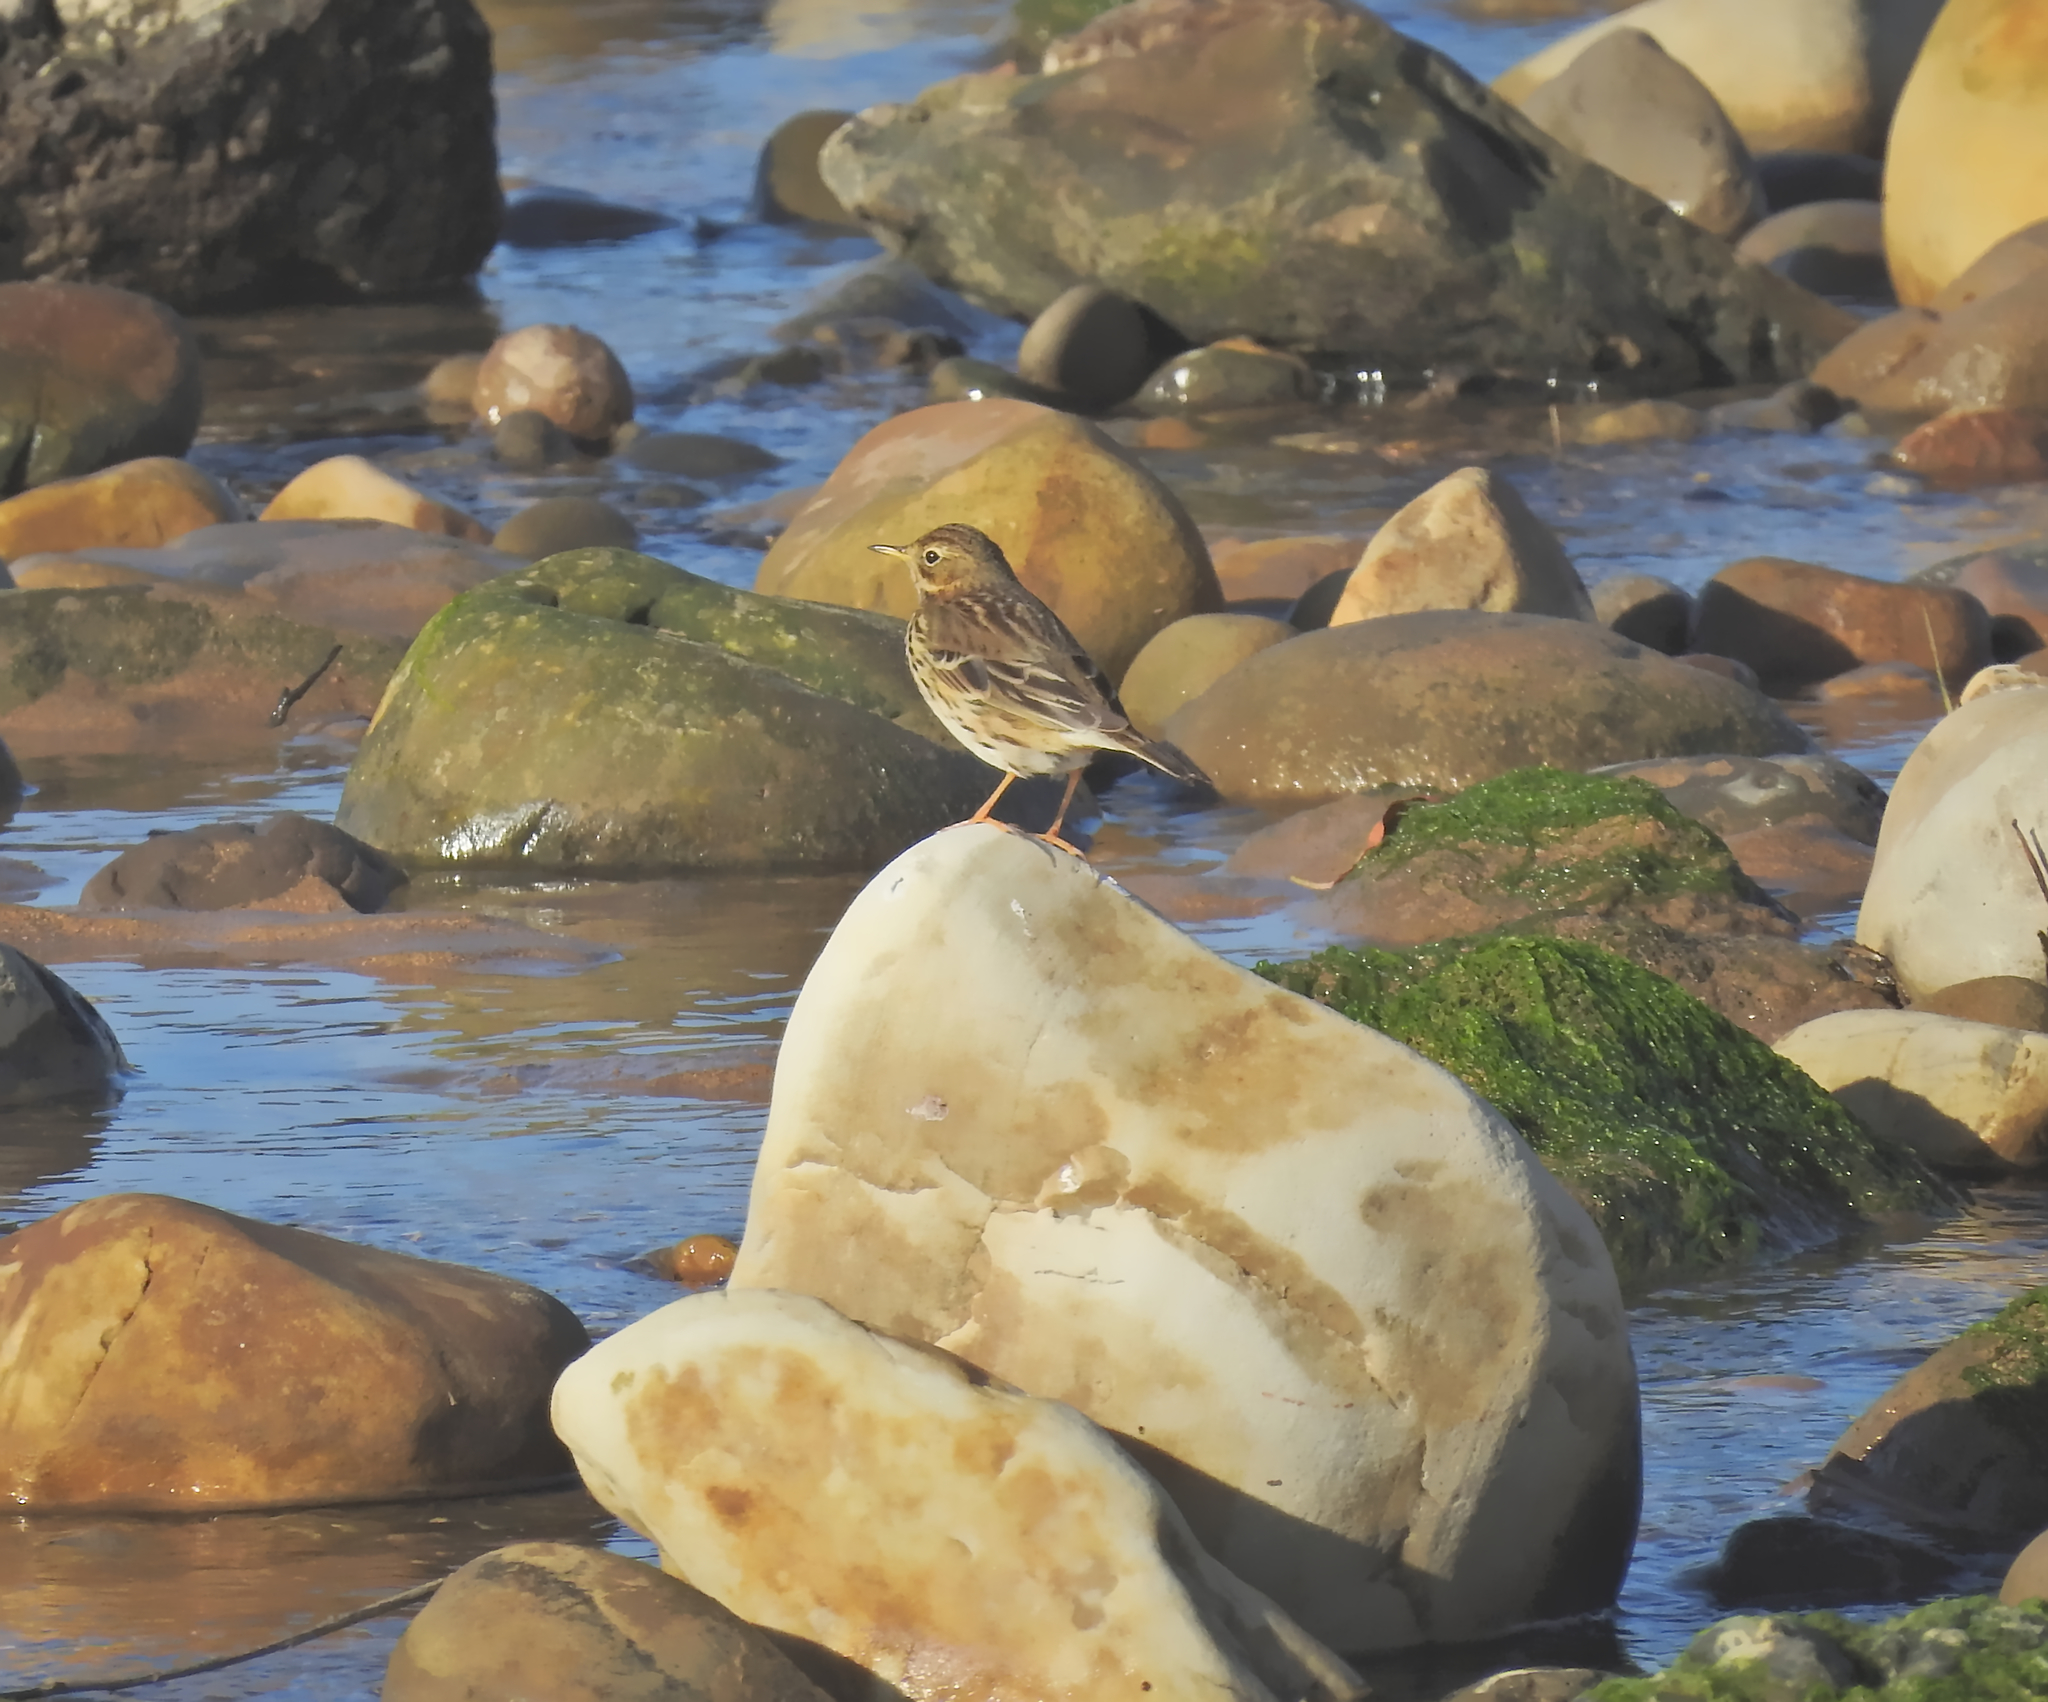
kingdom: Animalia
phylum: Chordata
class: Aves
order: Passeriformes
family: Motacillidae
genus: Anthus
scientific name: Anthus pratensis
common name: Meadow pipit
